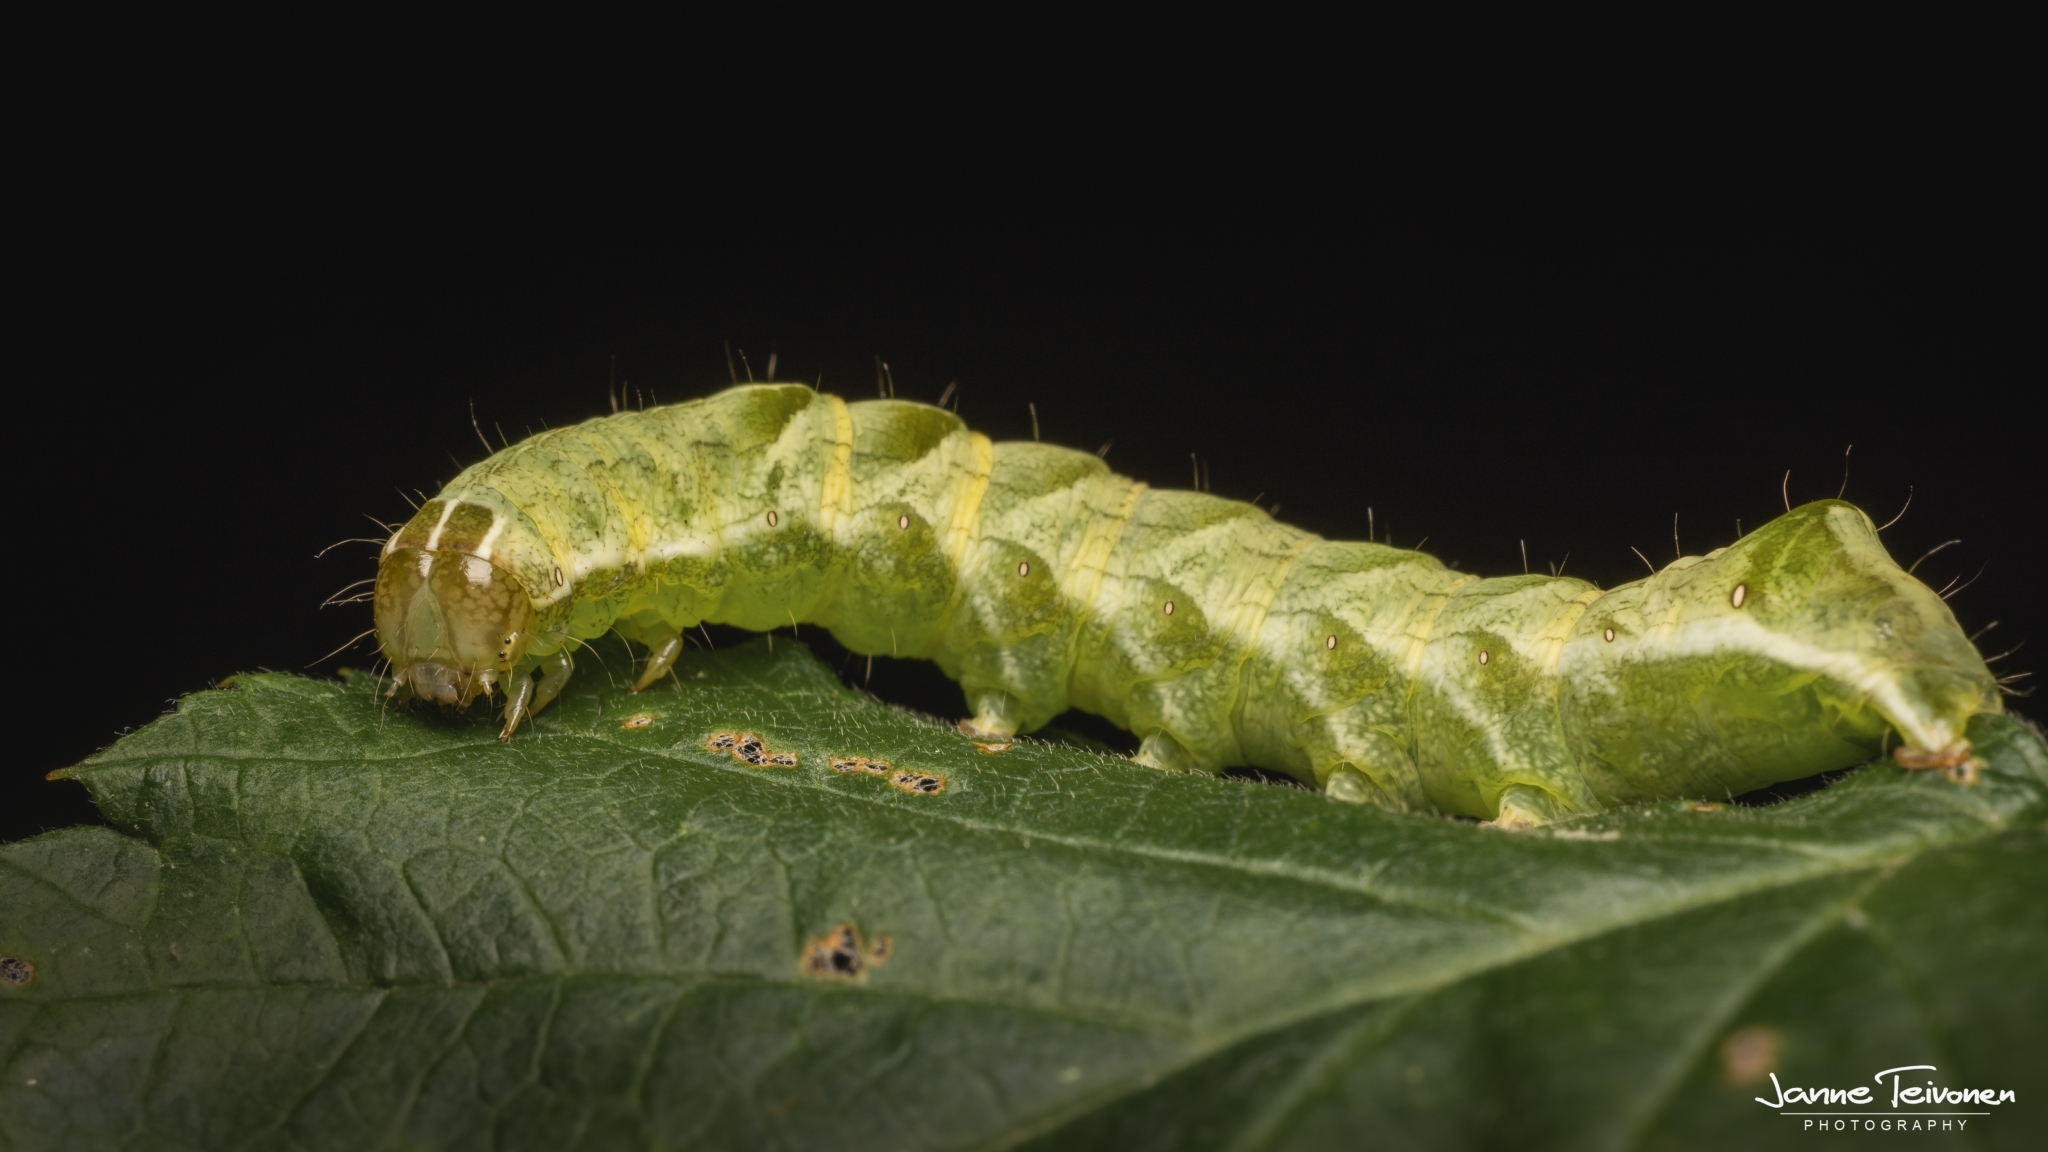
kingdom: Animalia
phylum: Arthropoda
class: Insecta
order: Lepidoptera
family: Noctuidae
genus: Melanchra
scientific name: Melanchra persicariae
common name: Dot moth
